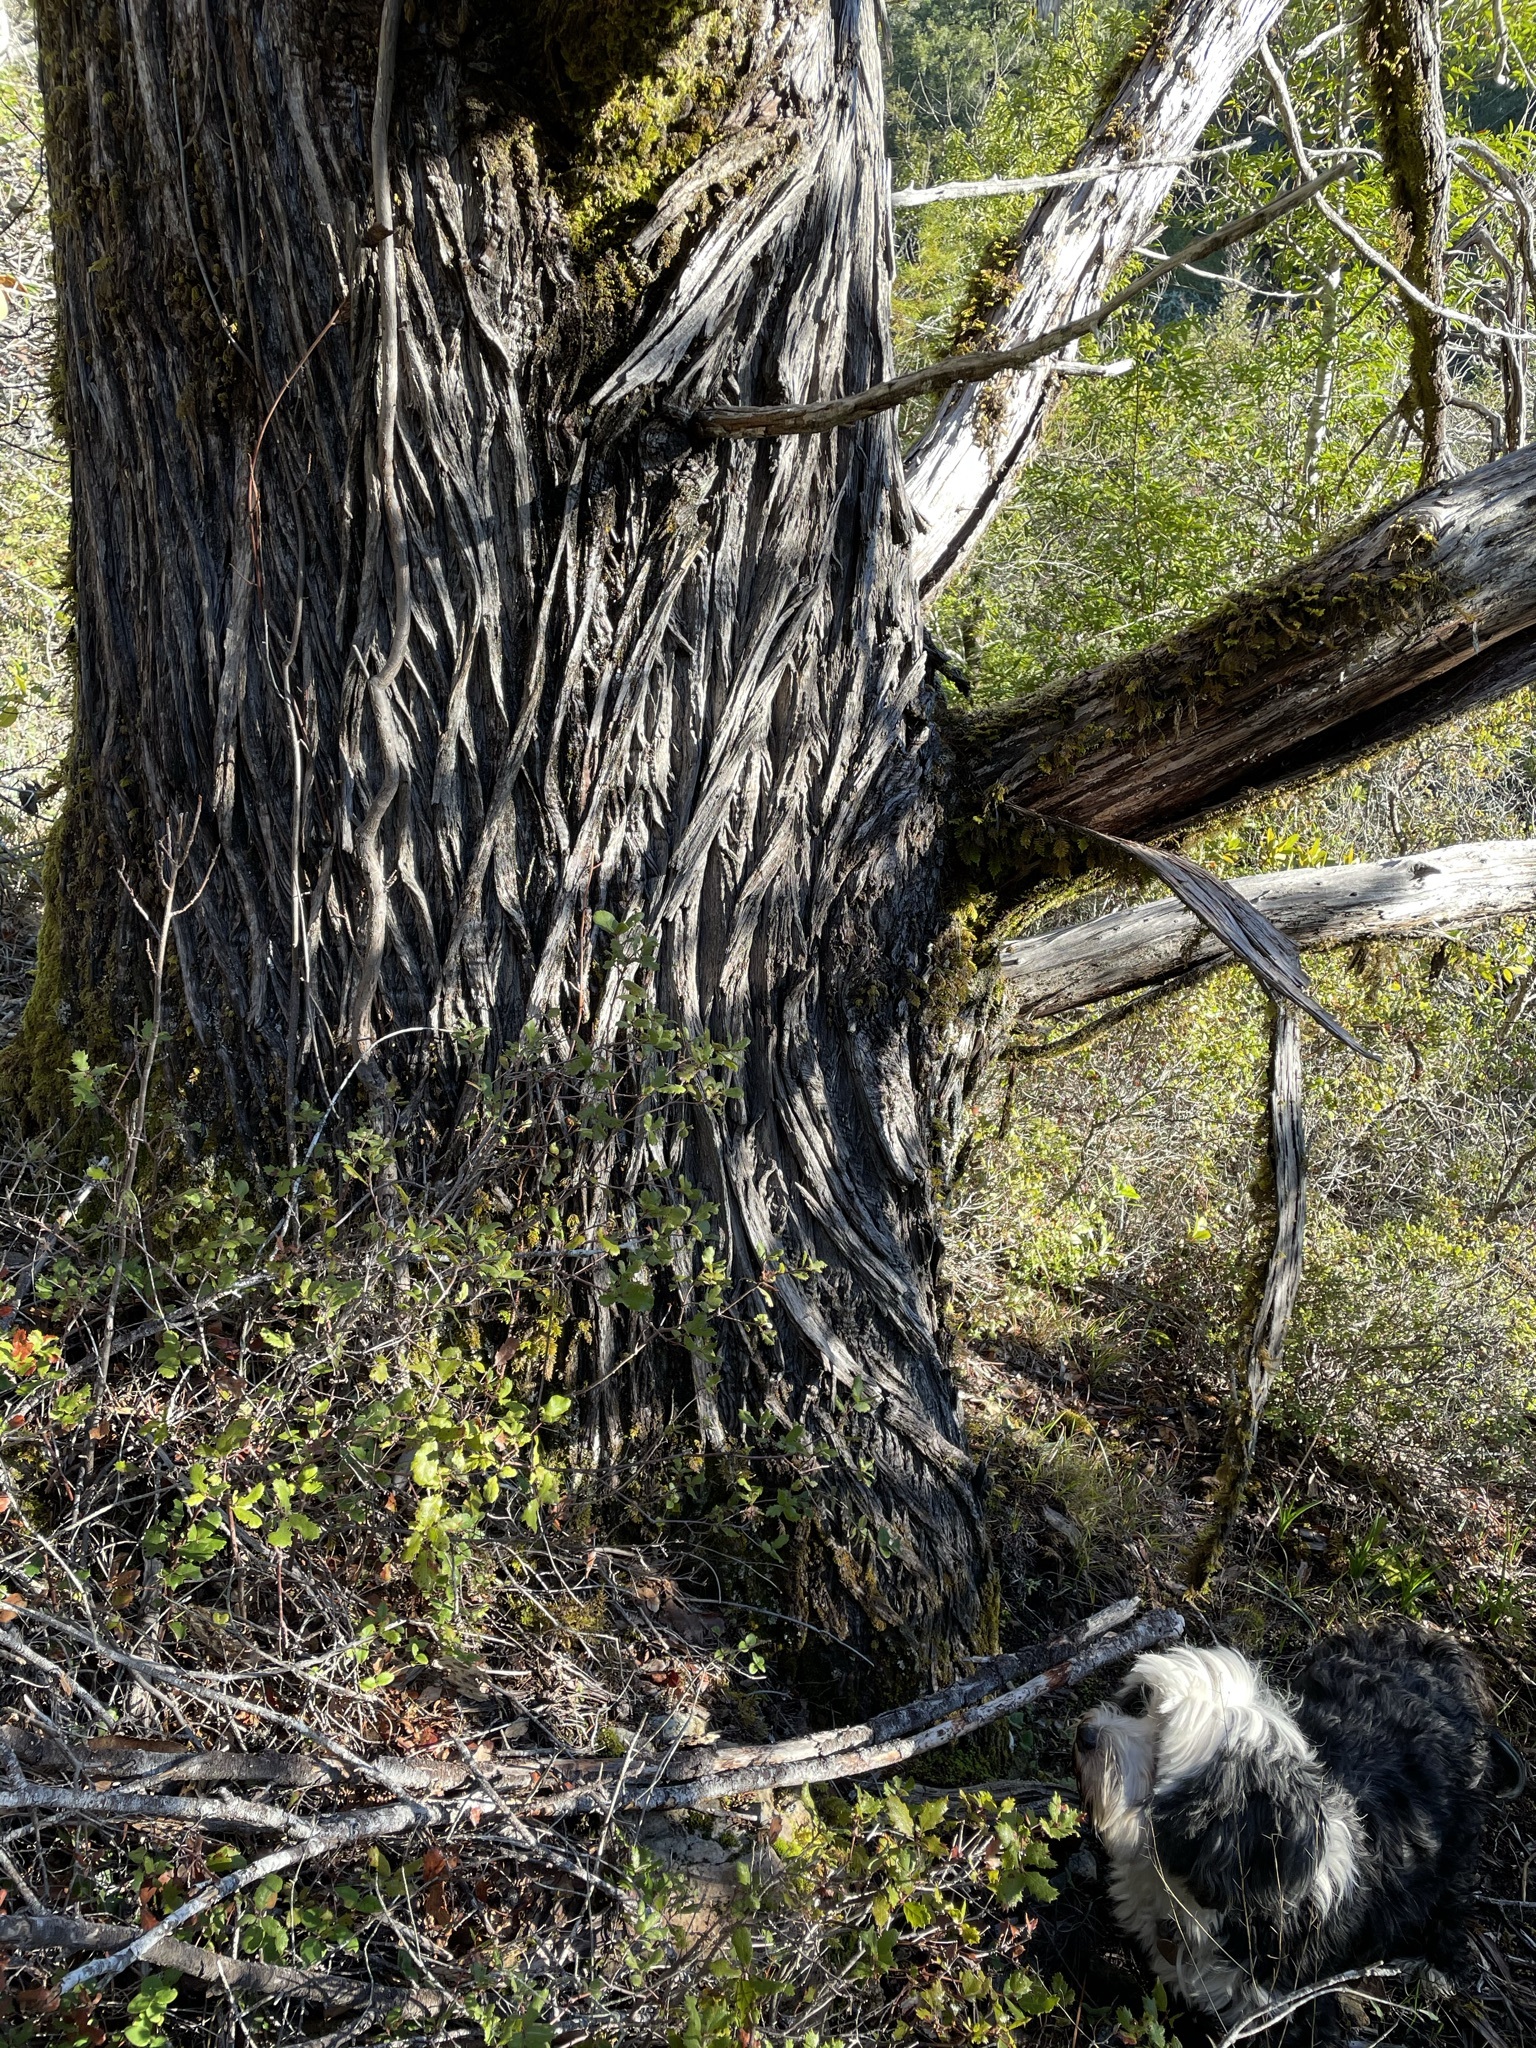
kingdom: Plantae
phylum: Tracheophyta
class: Pinopsida
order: Pinales
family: Cupressaceae
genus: Cupressus
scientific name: Cupressus sargentii
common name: Sargent cypress
